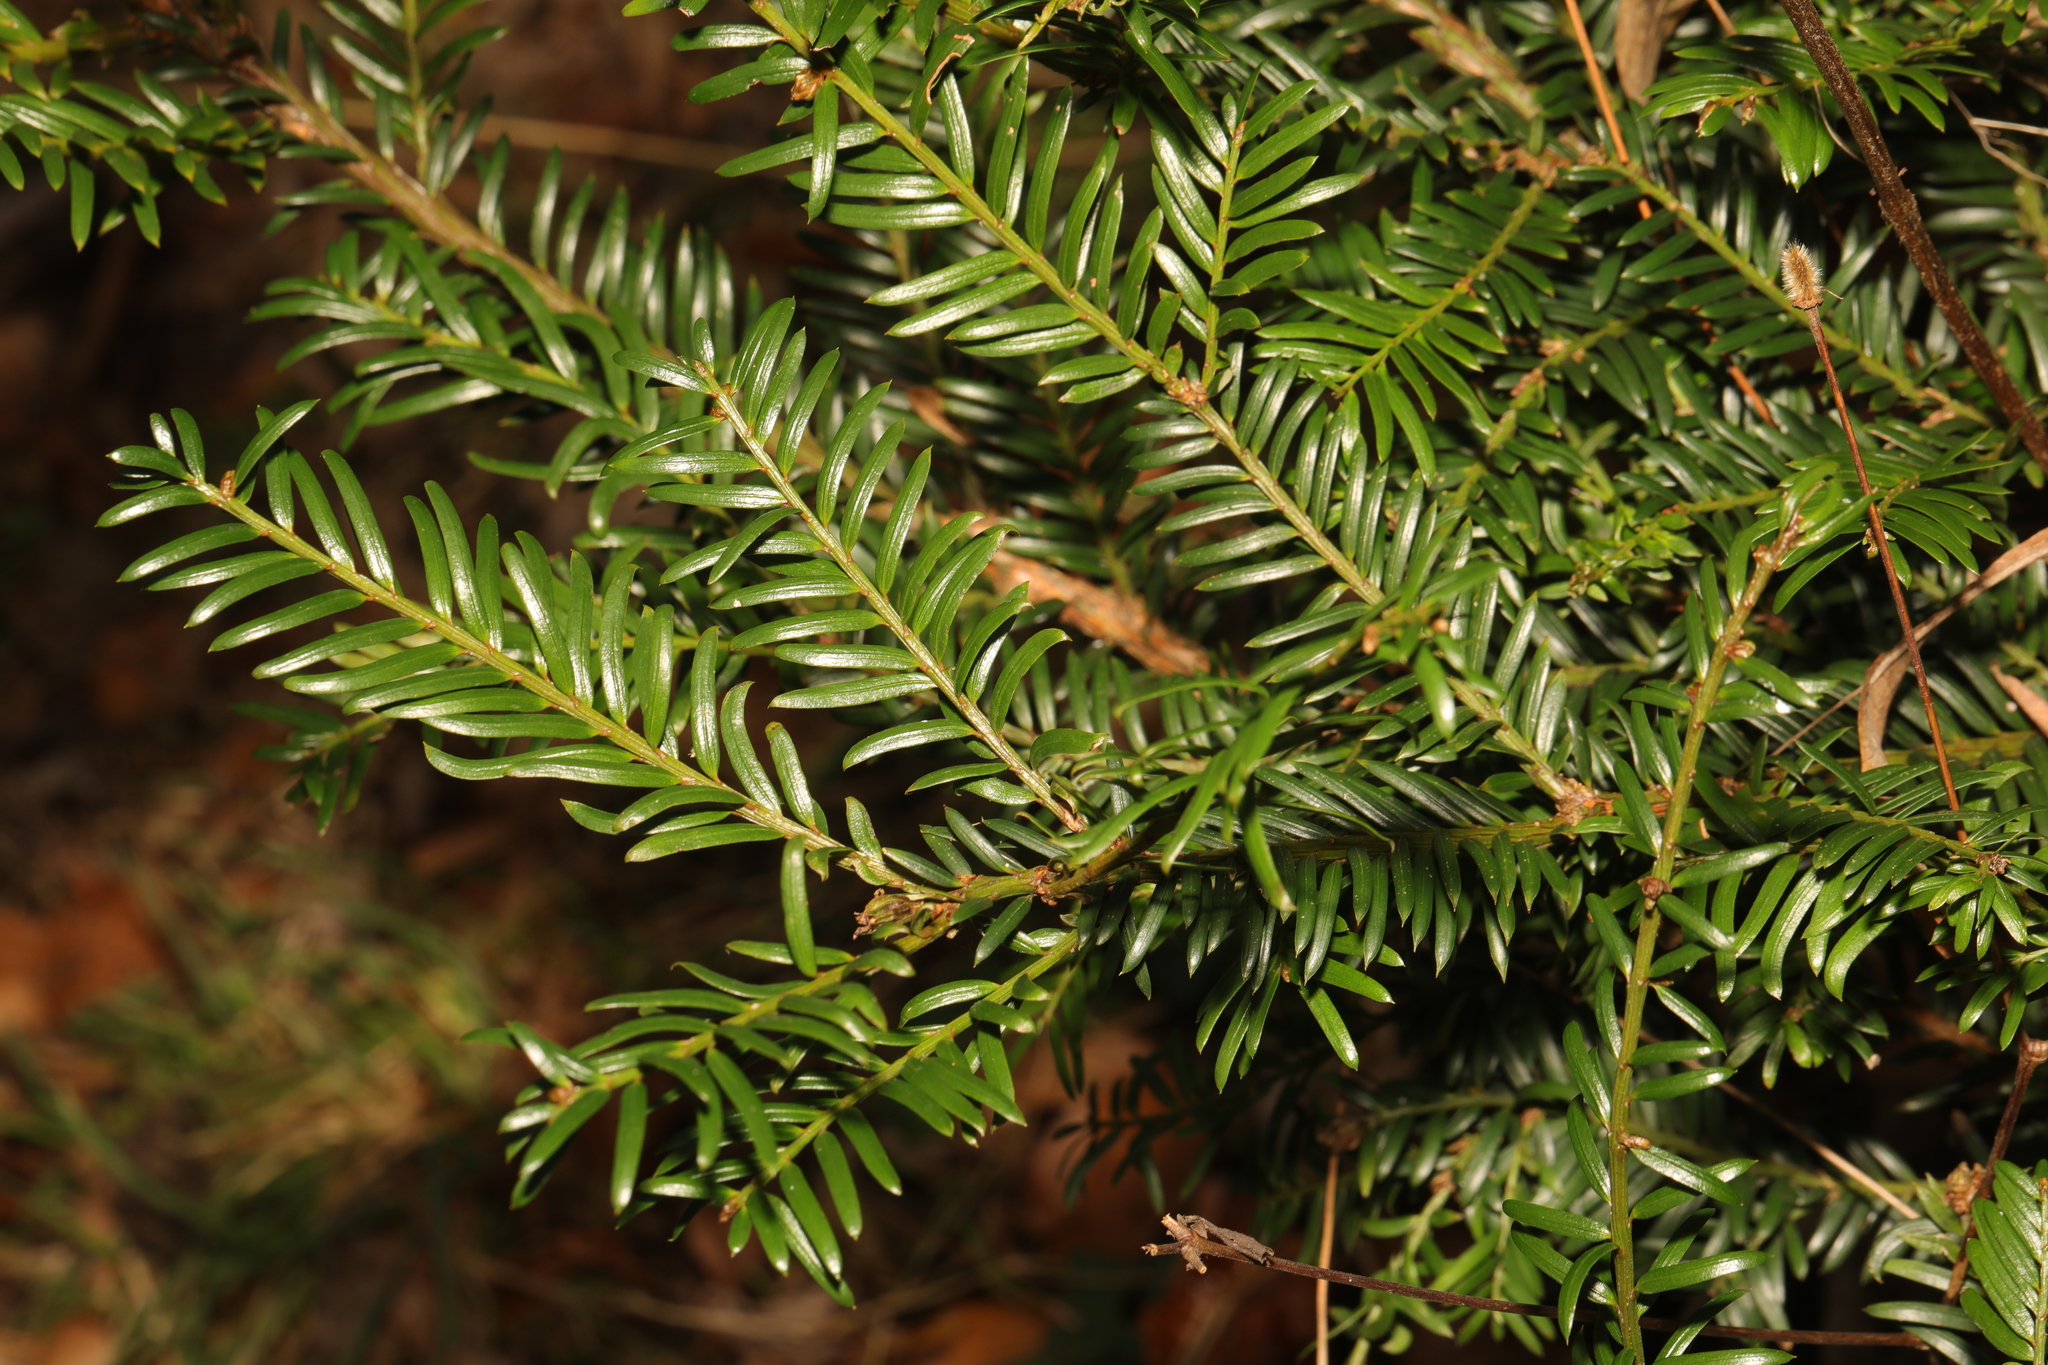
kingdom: Plantae
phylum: Tracheophyta
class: Pinopsida
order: Pinales
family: Taxaceae
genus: Taxus
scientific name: Taxus baccata
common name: Yew
